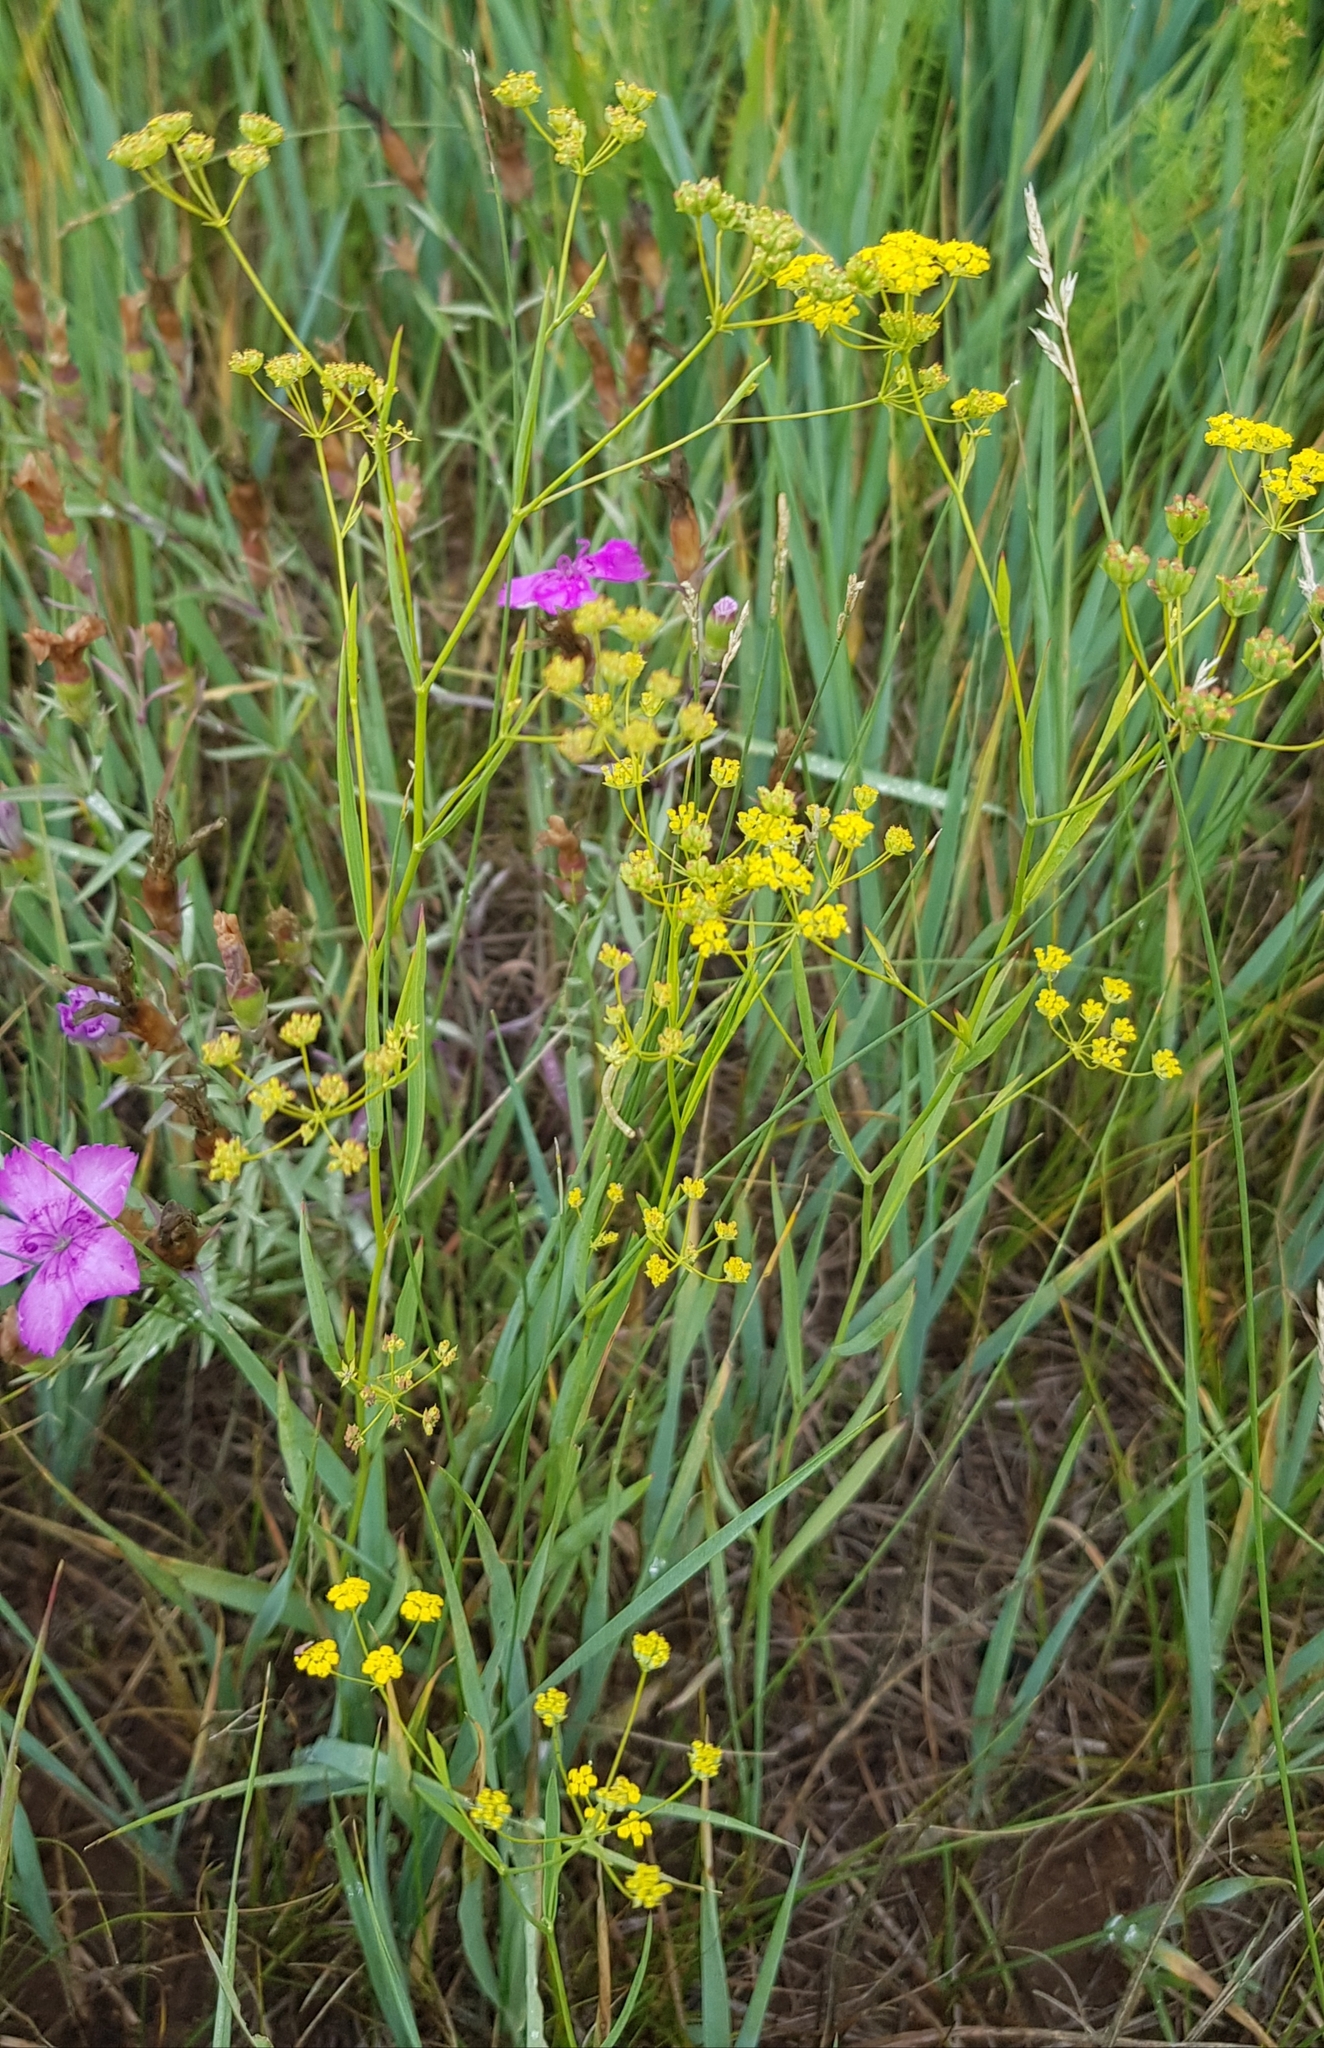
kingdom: Plantae
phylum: Tracheophyta
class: Magnoliopsida
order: Apiales
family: Apiaceae
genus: Bupleurum
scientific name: Bupleurum scorzonerifolium
